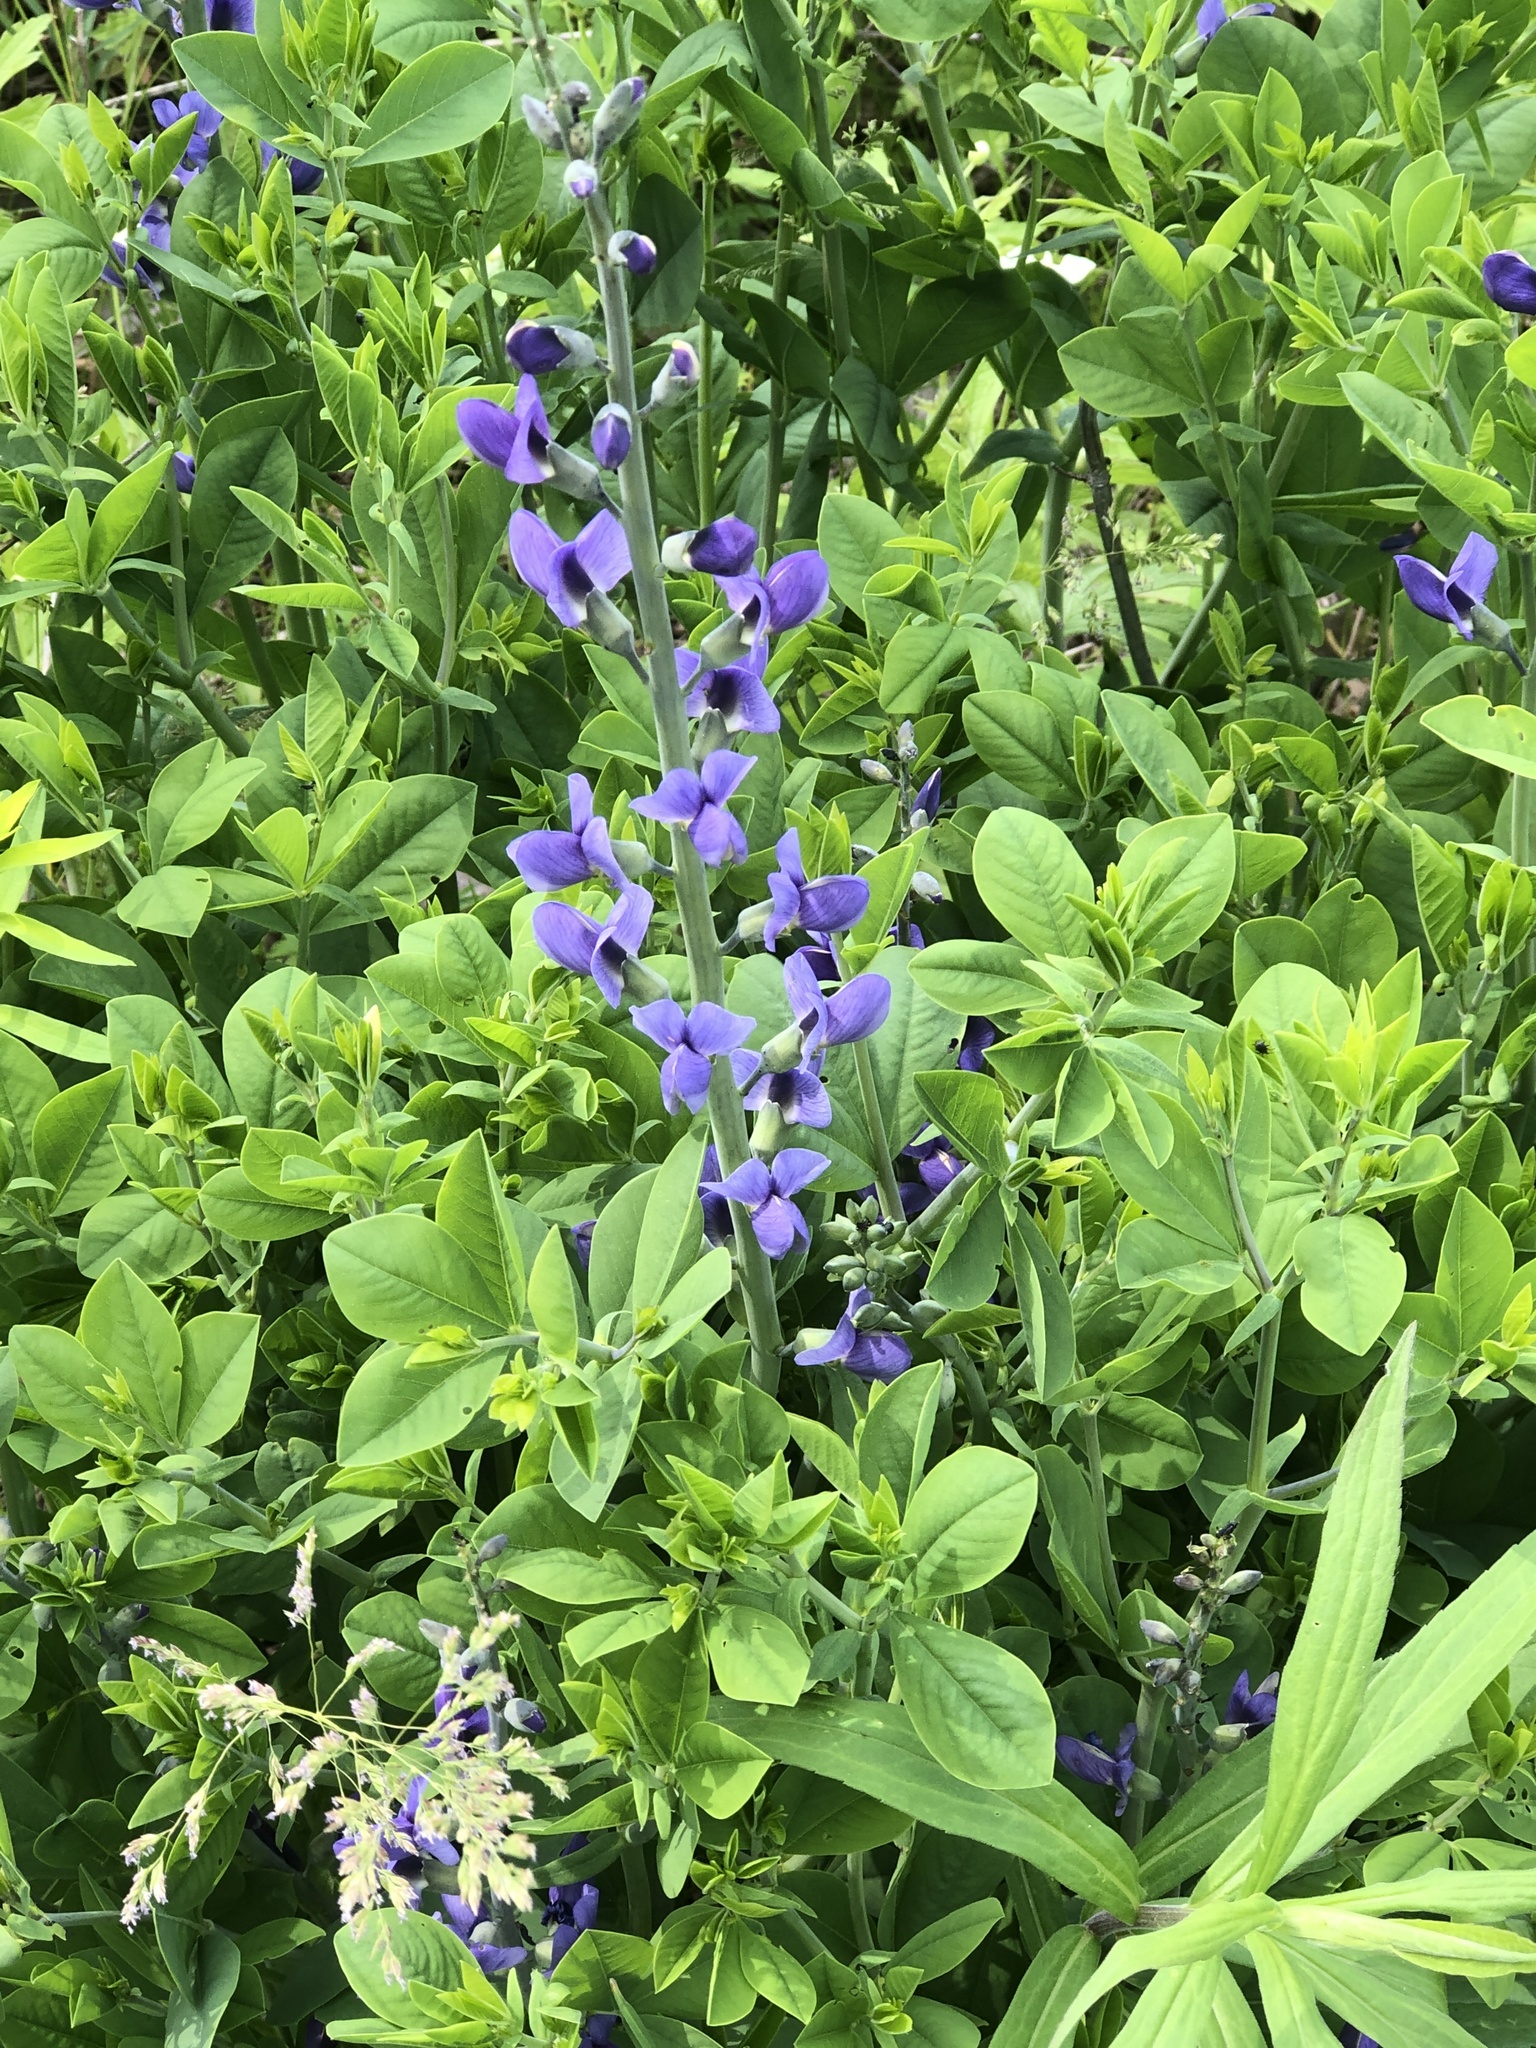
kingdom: Plantae
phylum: Tracheophyta
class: Magnoliopsida
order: Fabales
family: Fabaceae
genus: Baptisia
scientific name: Baptisia australis
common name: Blue false indigo
